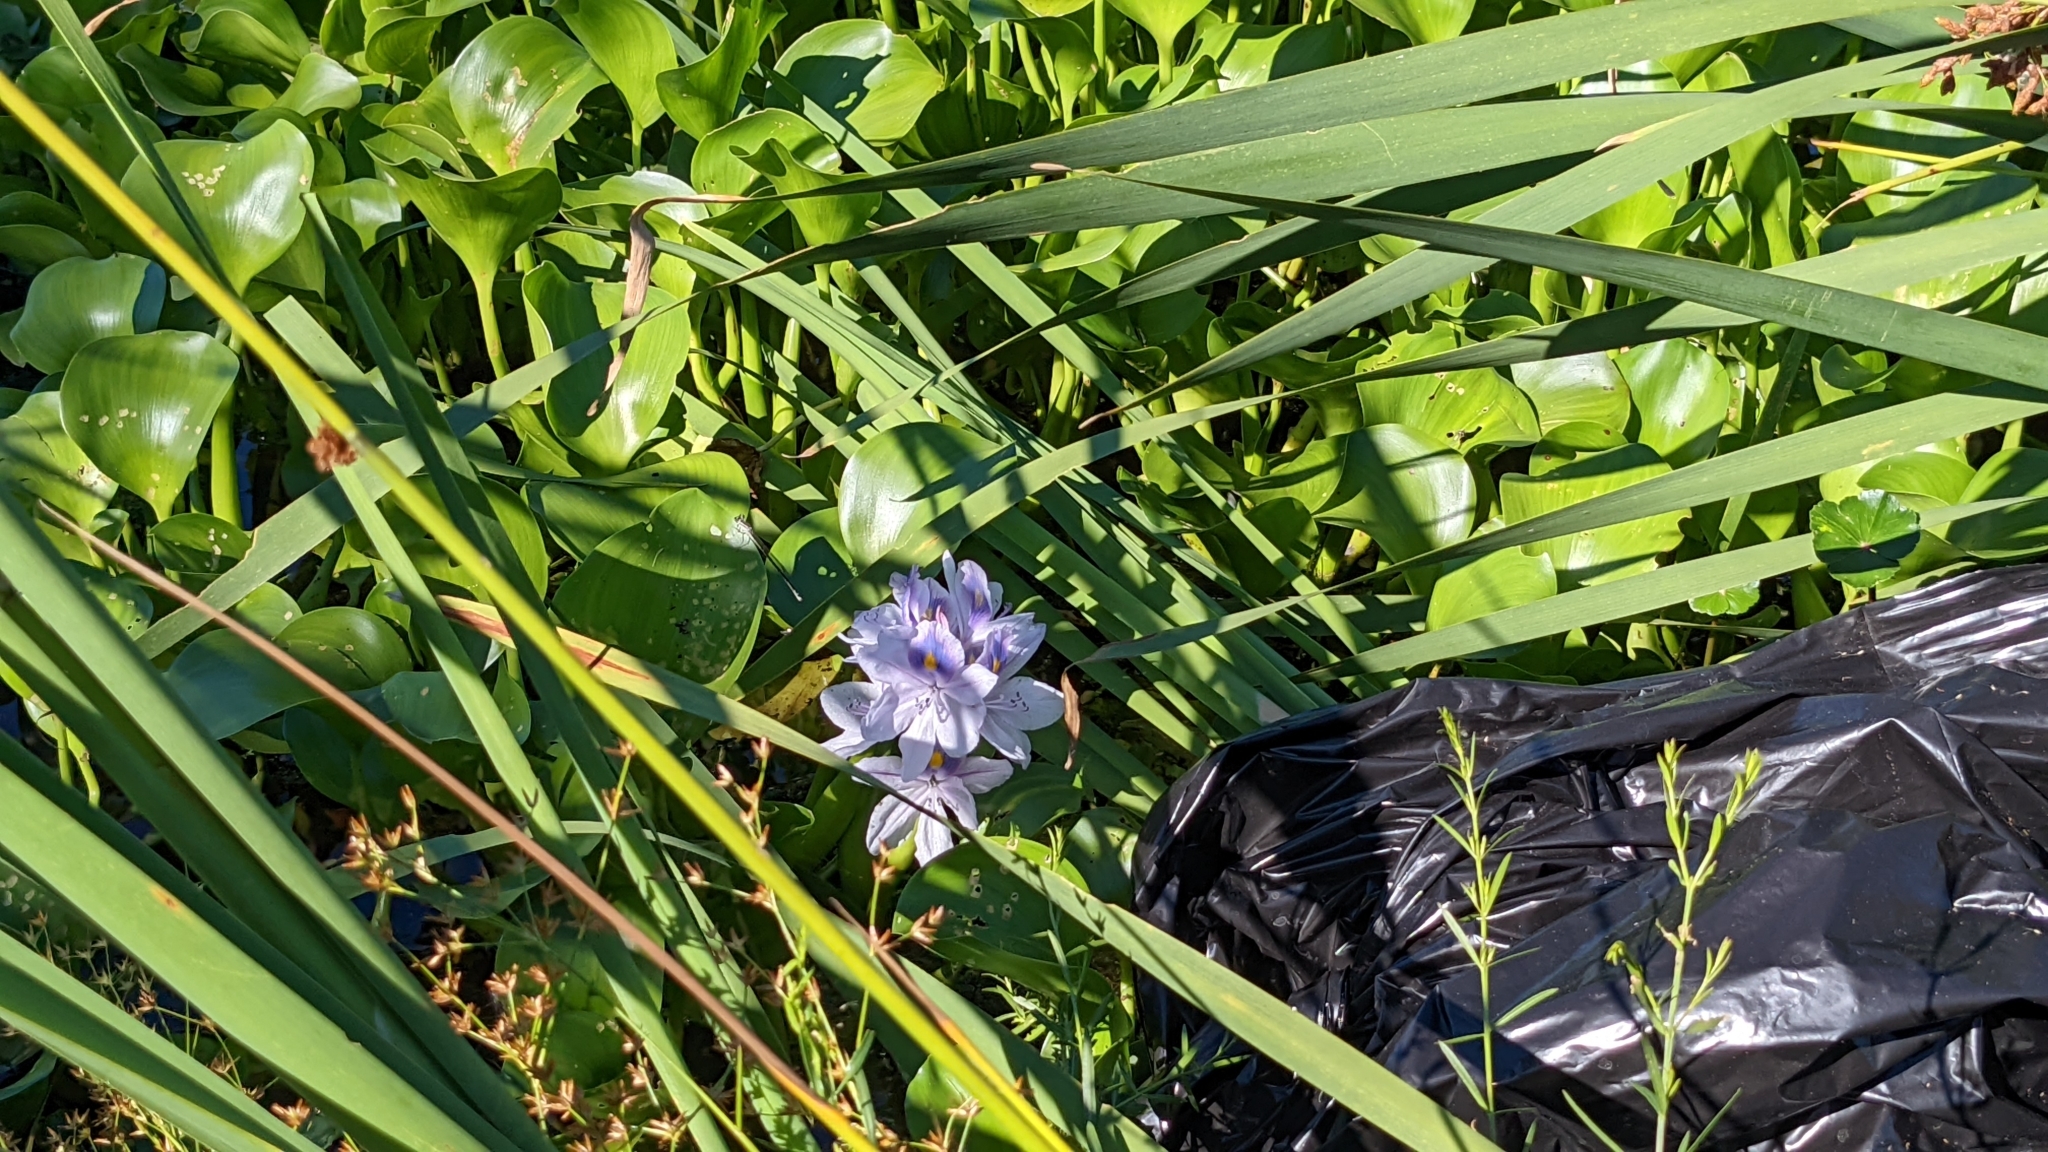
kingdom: Plantae
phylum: Tracheophyta
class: Liliopsida
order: Commelinales
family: Pontederiaceae
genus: Pontederia
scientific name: Pontederia crassipes
